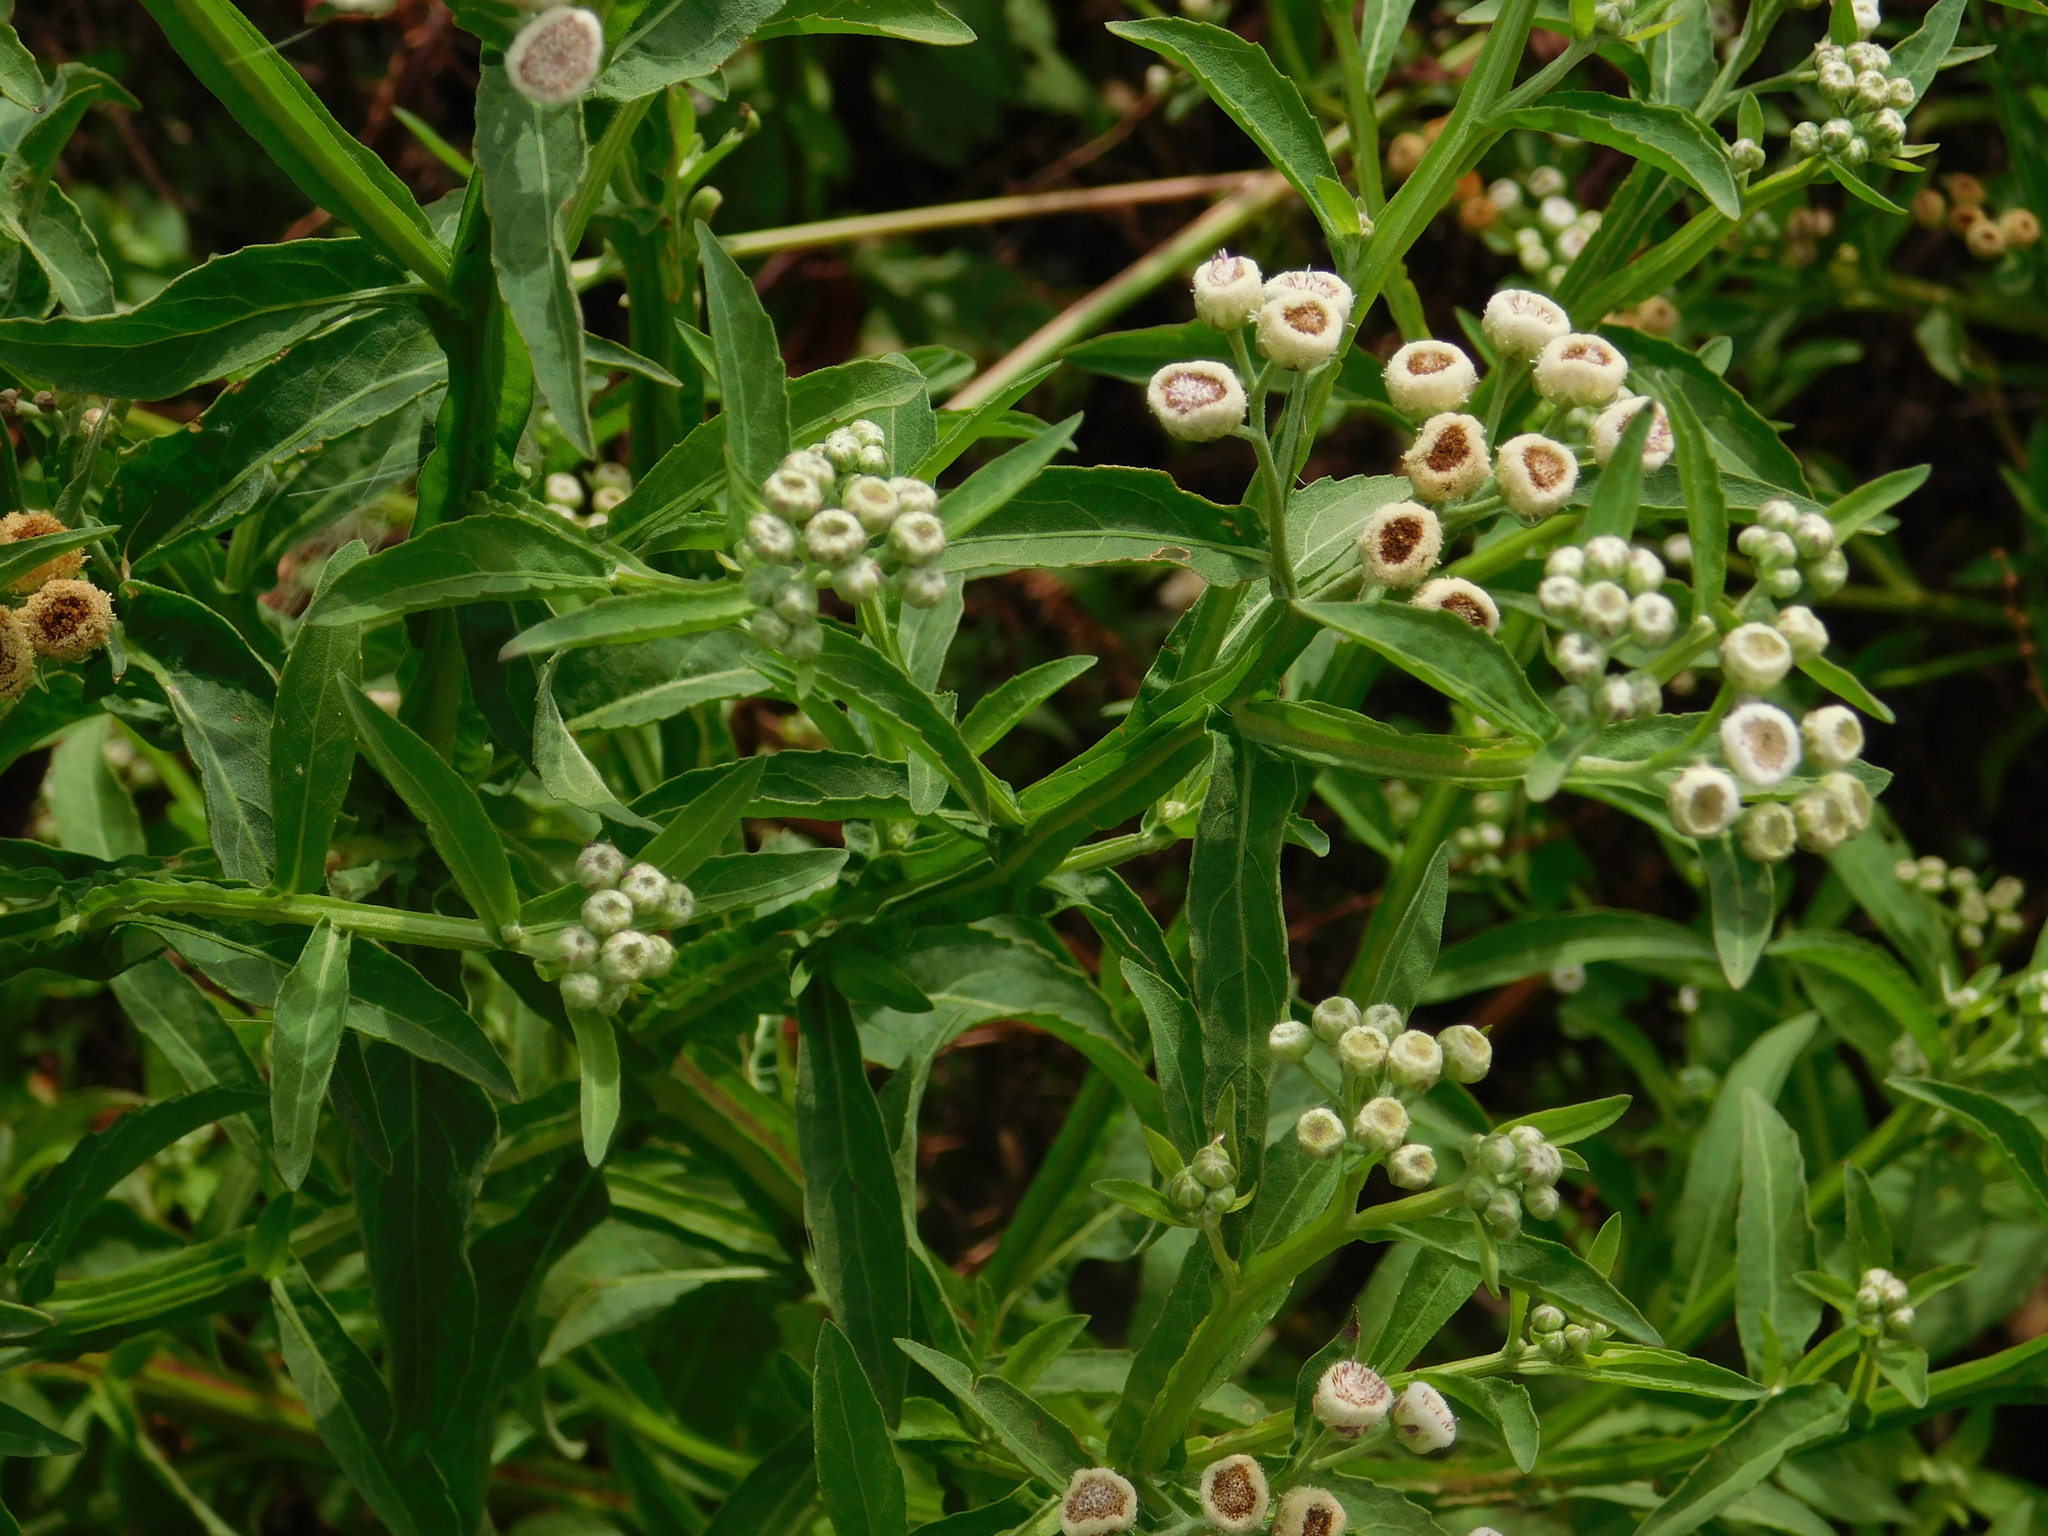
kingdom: Plantae
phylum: Tracheophyta
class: Magnoliopsida
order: Asterales
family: Asteraceae
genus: Pluchea
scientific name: Pluchea sagittalis
